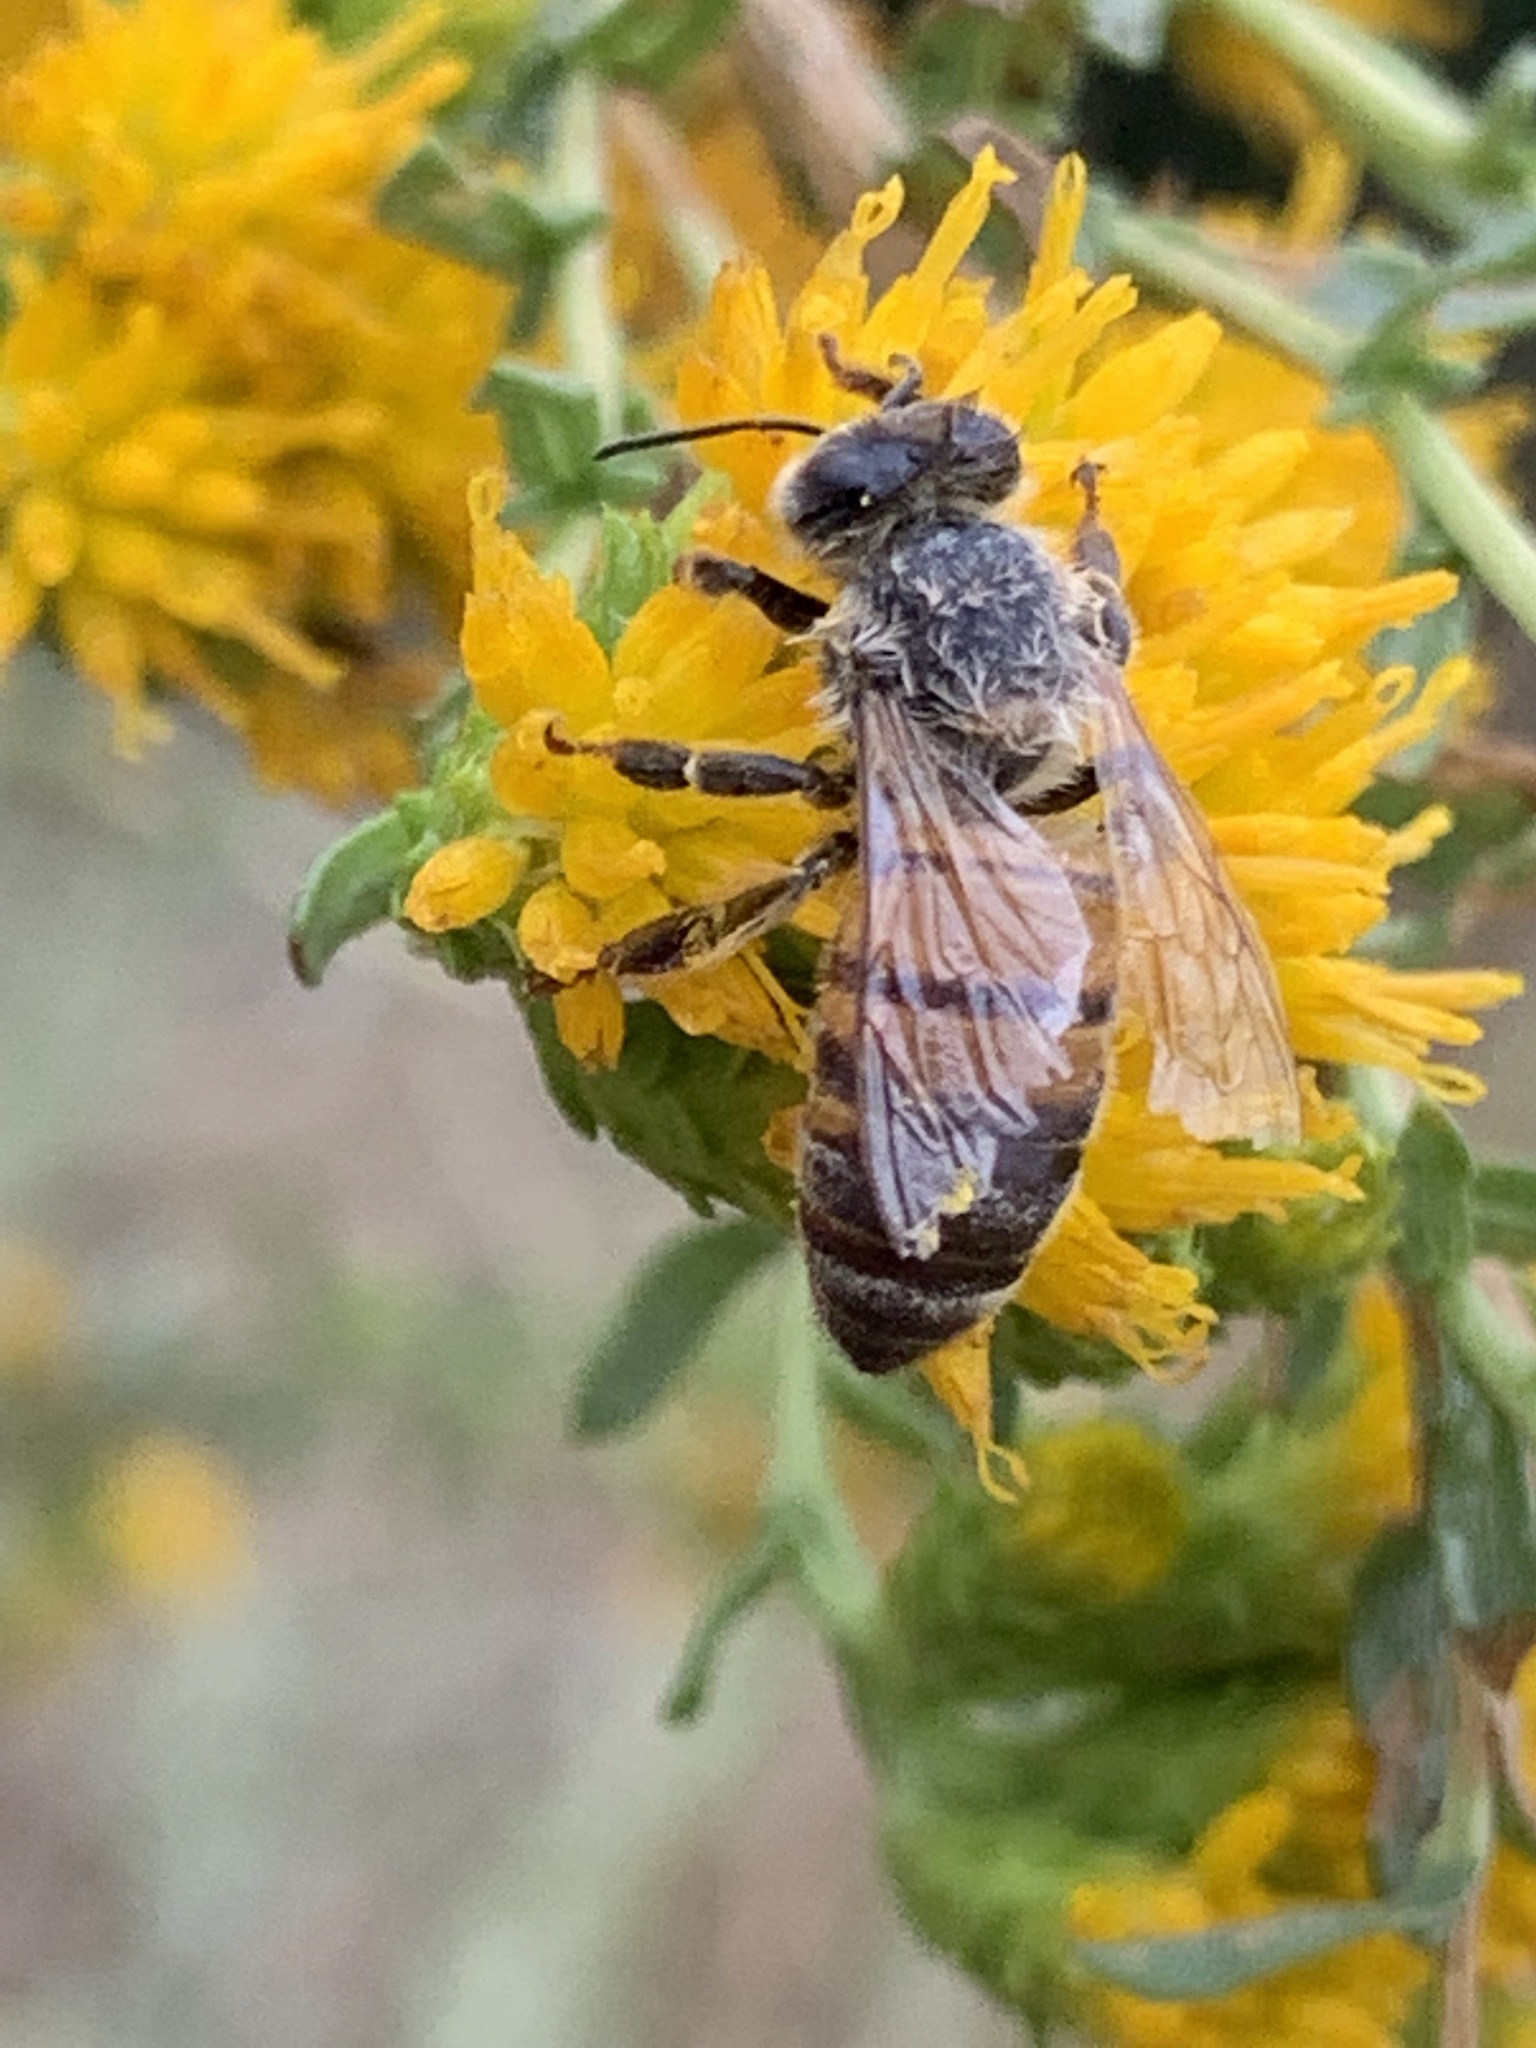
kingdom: Animalia
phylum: Arthropoda
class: Insecta
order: Hymenoptera
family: Apidae
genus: Apis
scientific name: Apis mellifera
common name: Honey bee
